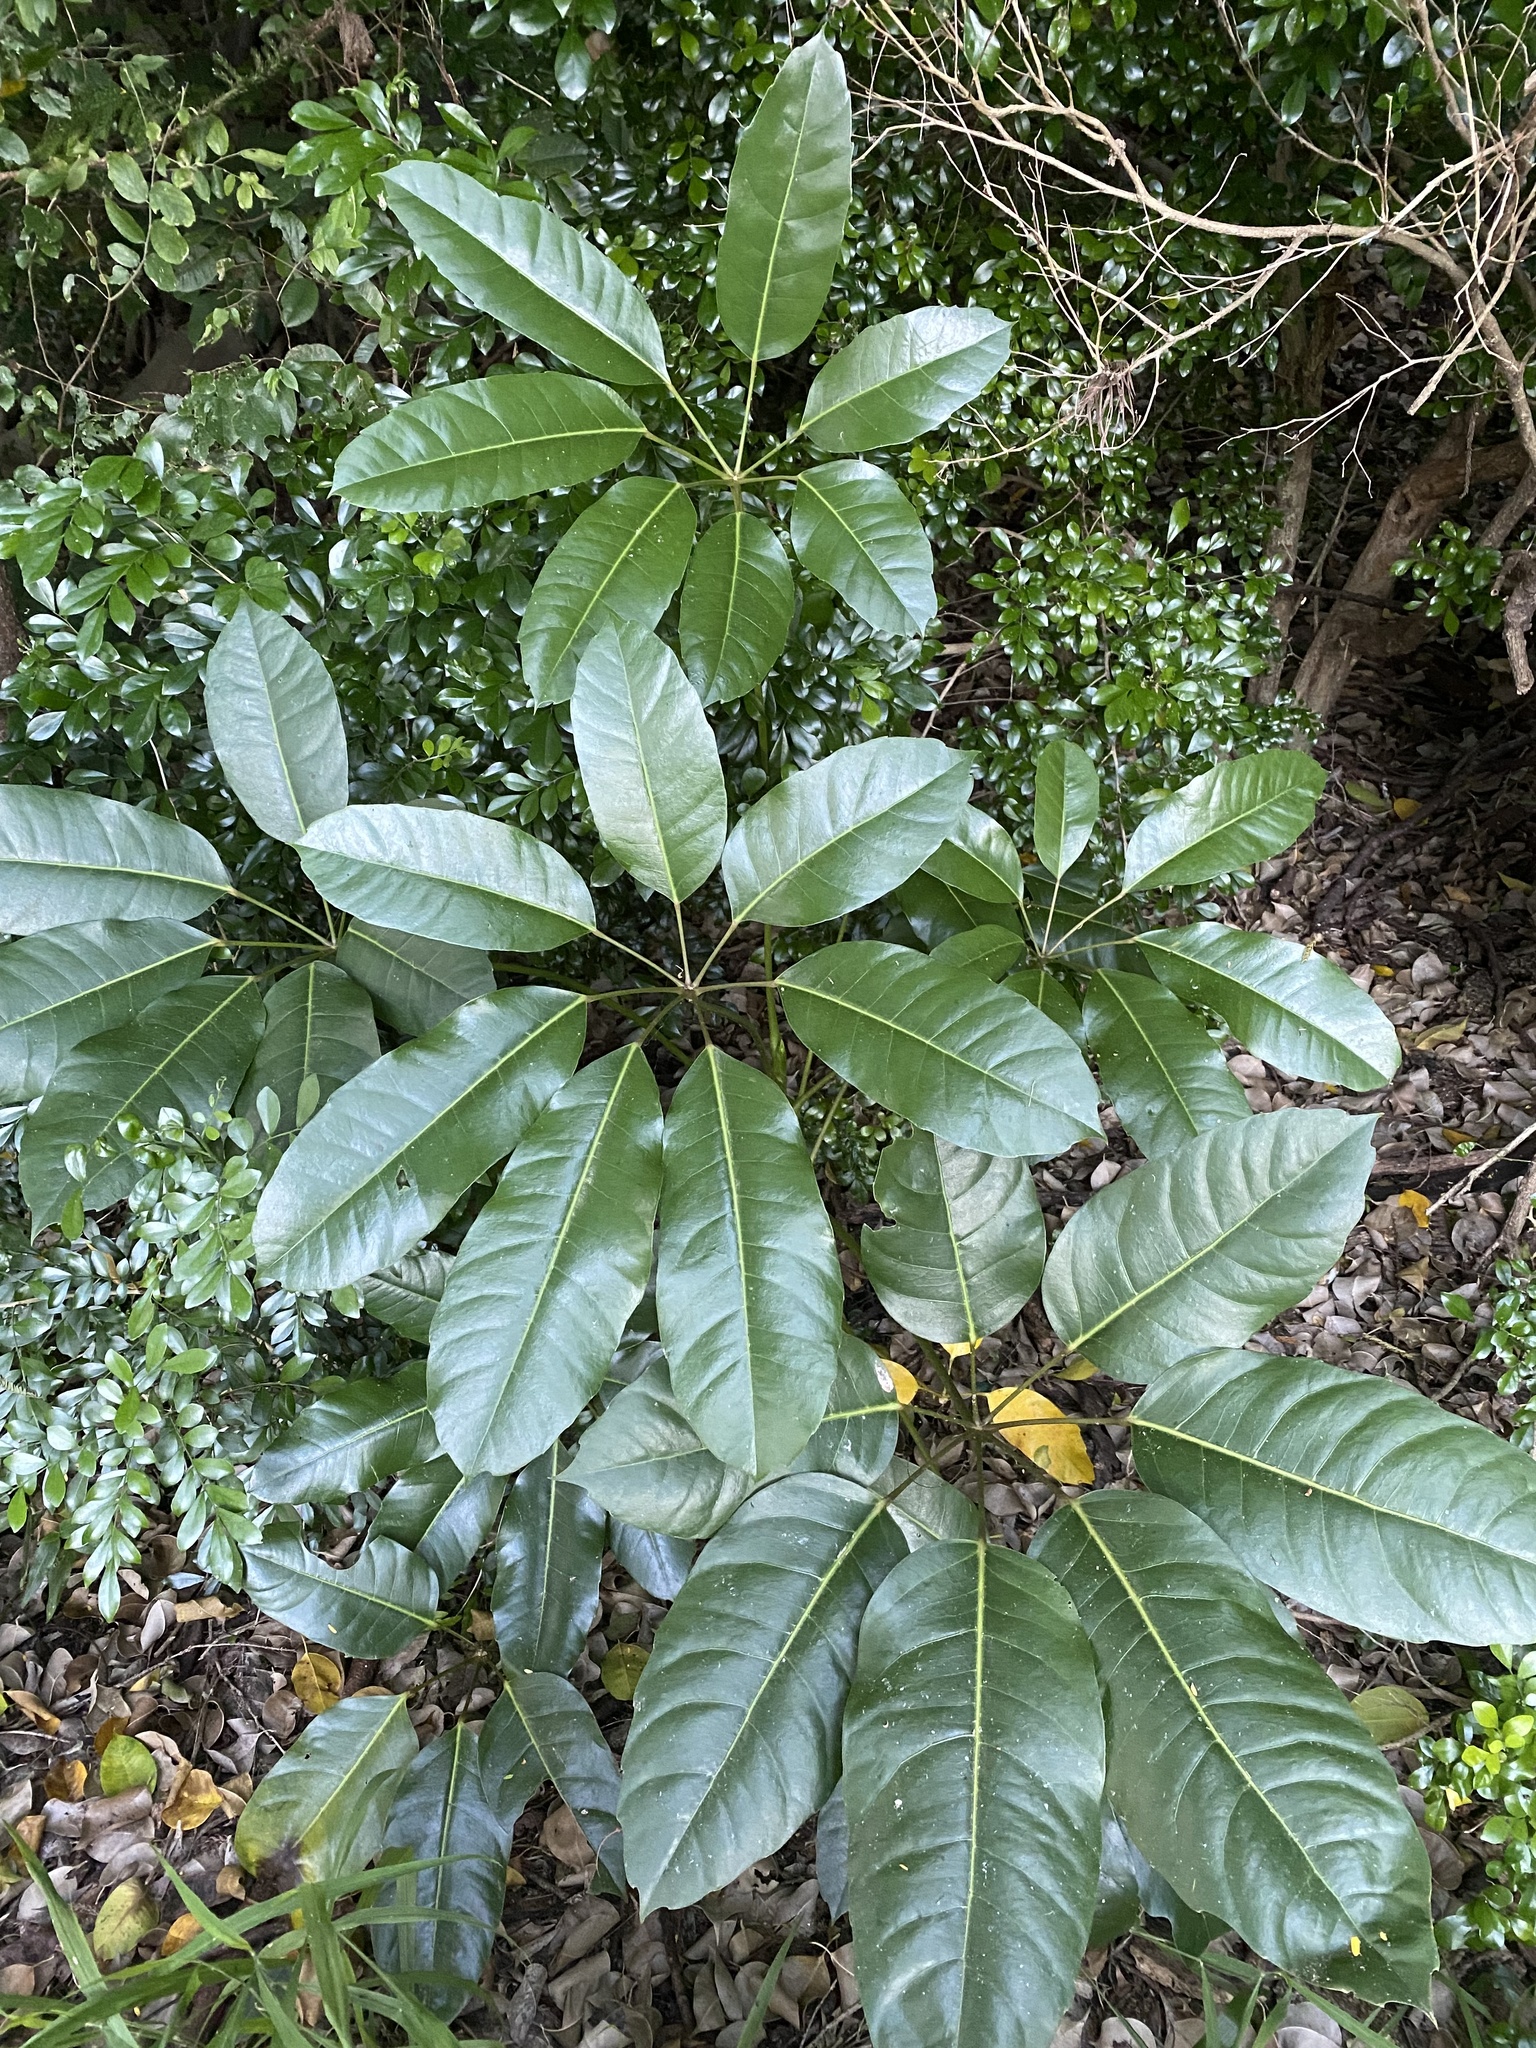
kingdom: Plantae
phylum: Tracheophyta
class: Magnoliopsida
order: Apiales
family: Araliaceae
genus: Heptapleurum
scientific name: Heptapleurum actinophyllum
